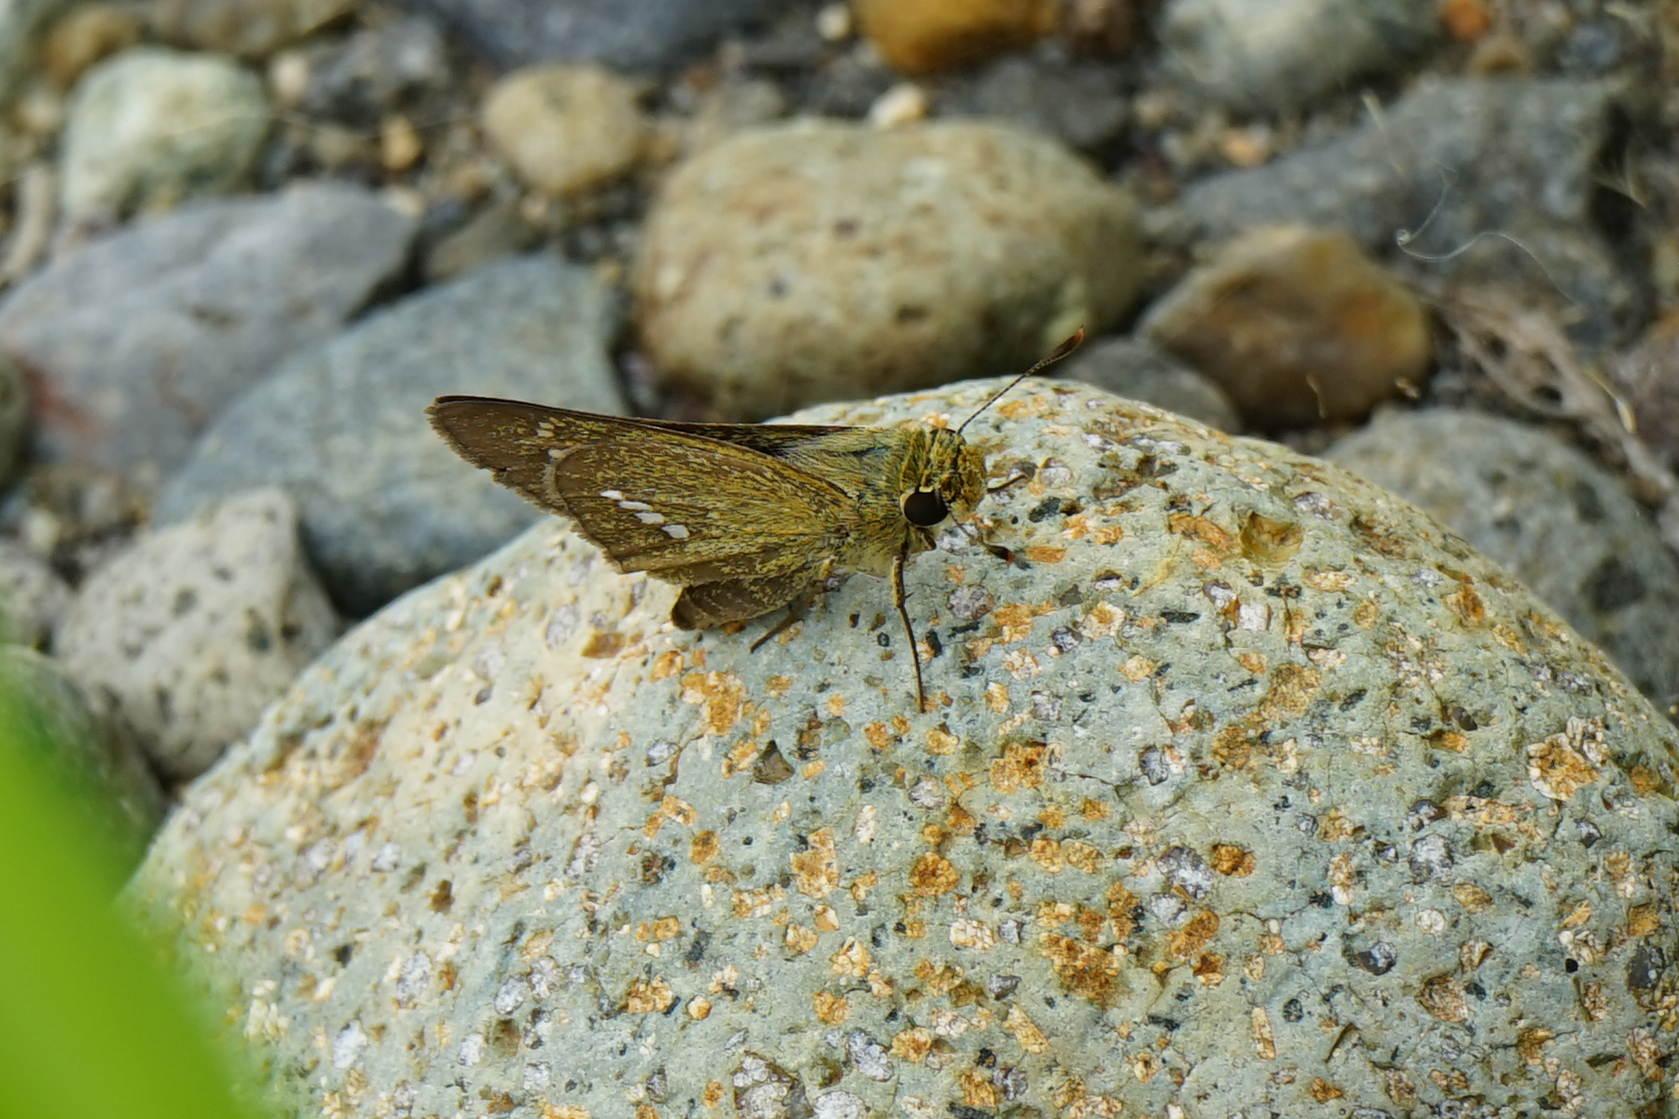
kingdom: Animalia
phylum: Arthropoda
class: Insecta
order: Lepidoptera
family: Hesperiidae
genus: Parnara
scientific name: Parnara guttatus
